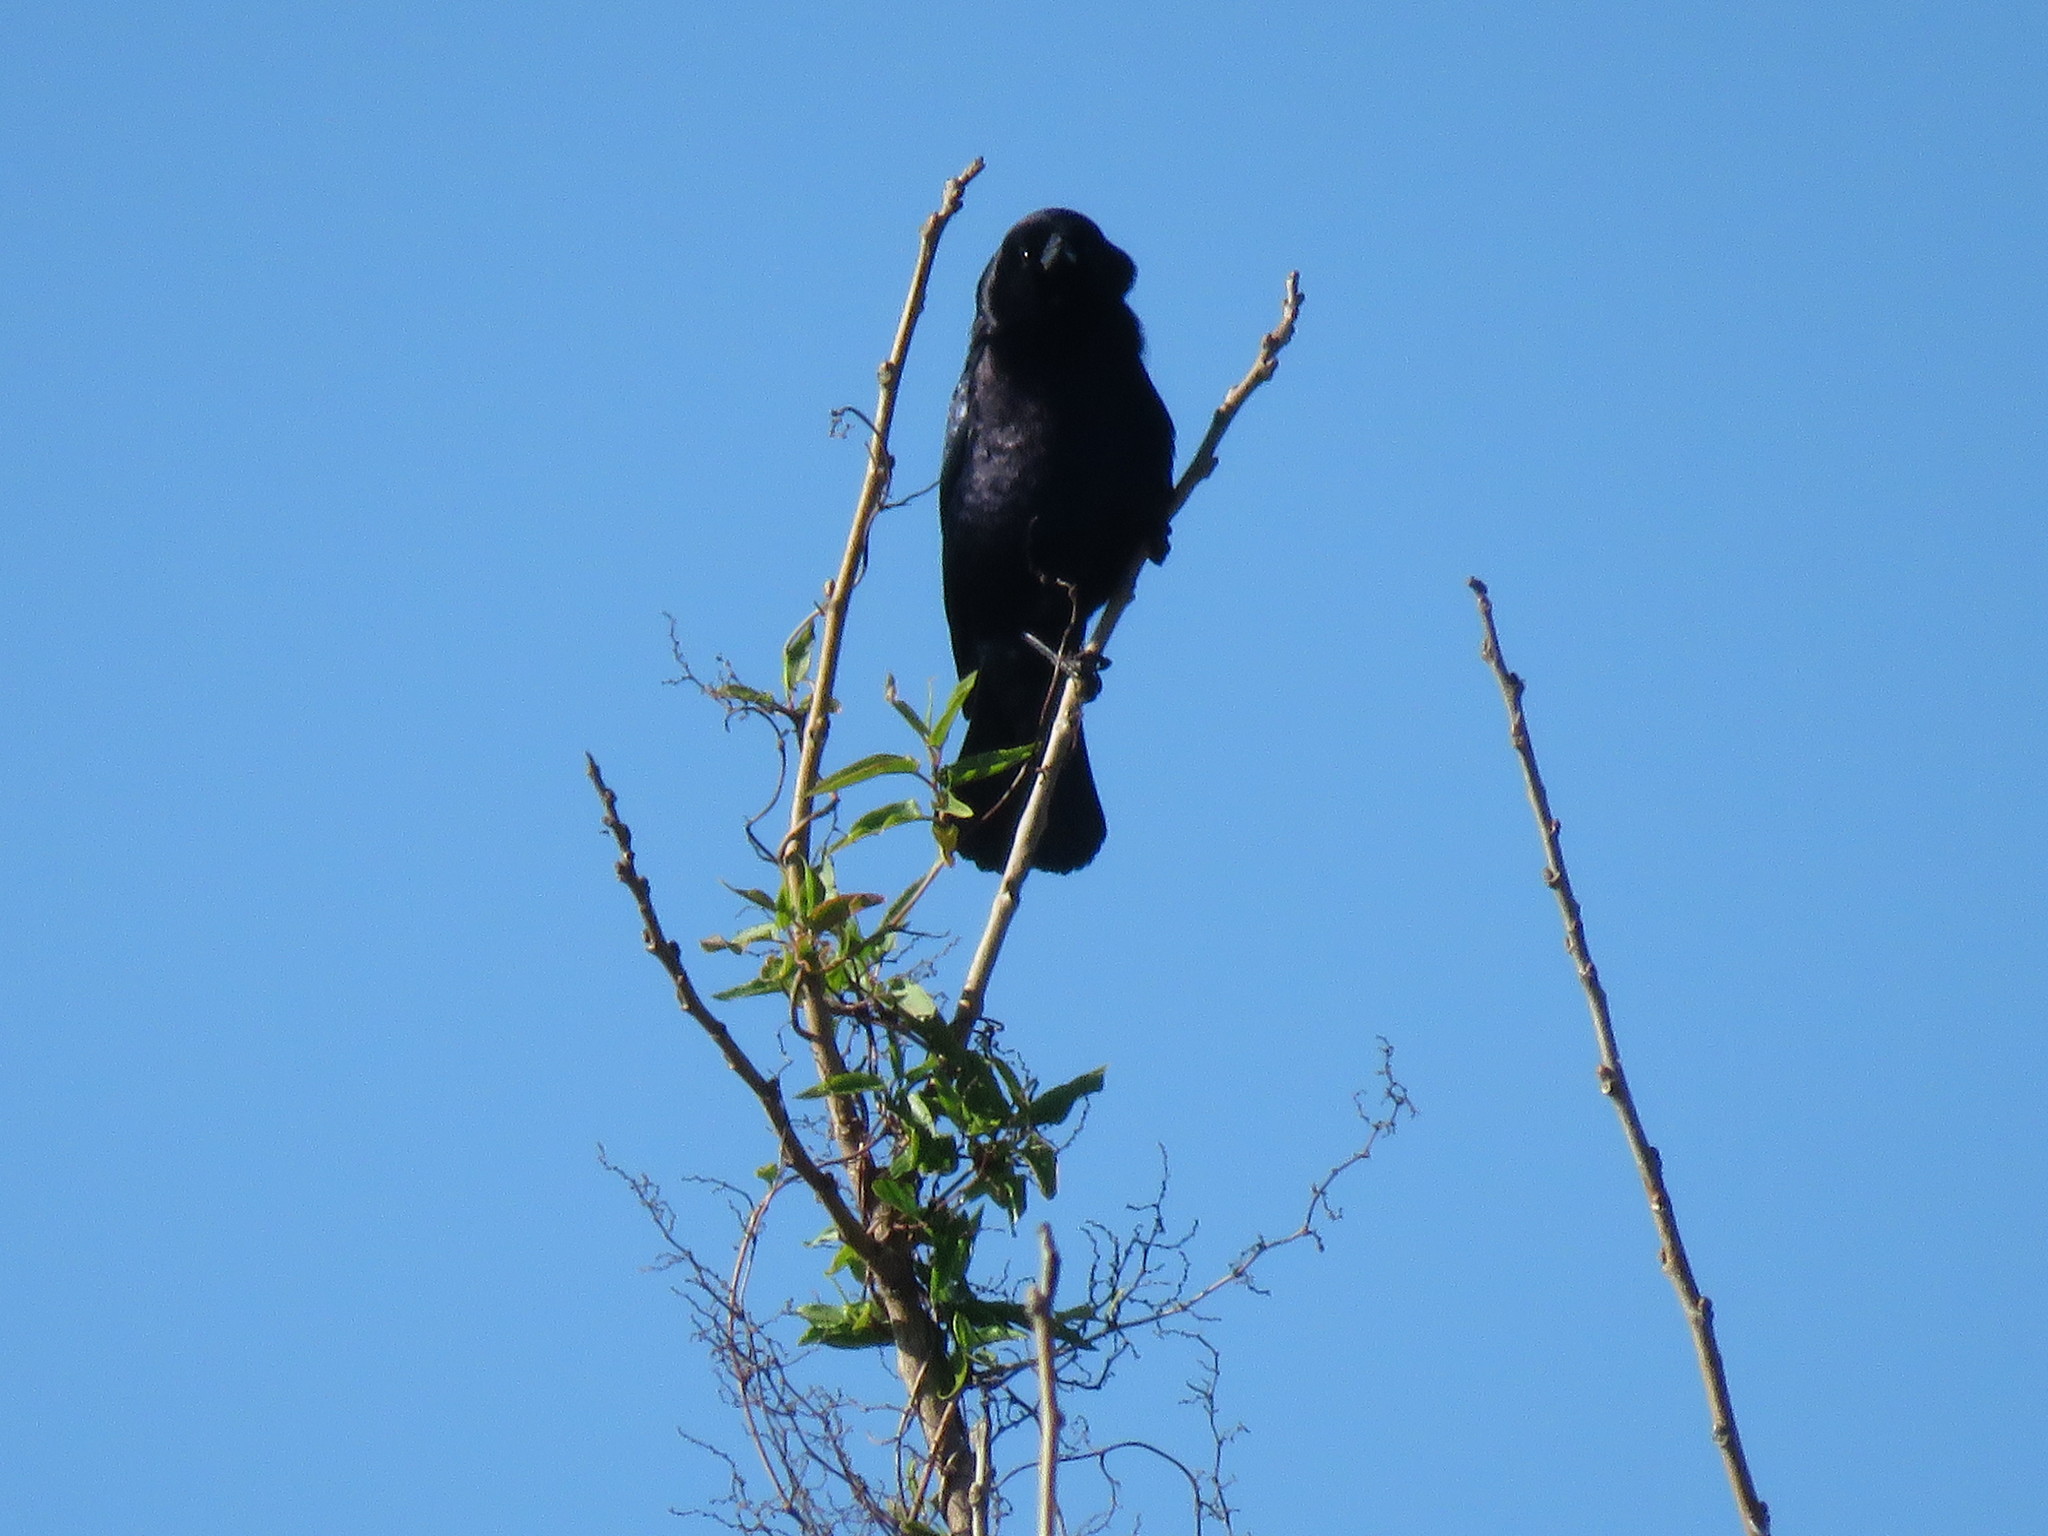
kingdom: Animalia
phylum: Chordata
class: Aves
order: Passeriformes
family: Icteridae
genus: Molothrus
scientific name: Molothrus bonariensis
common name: Shiny cowbird
